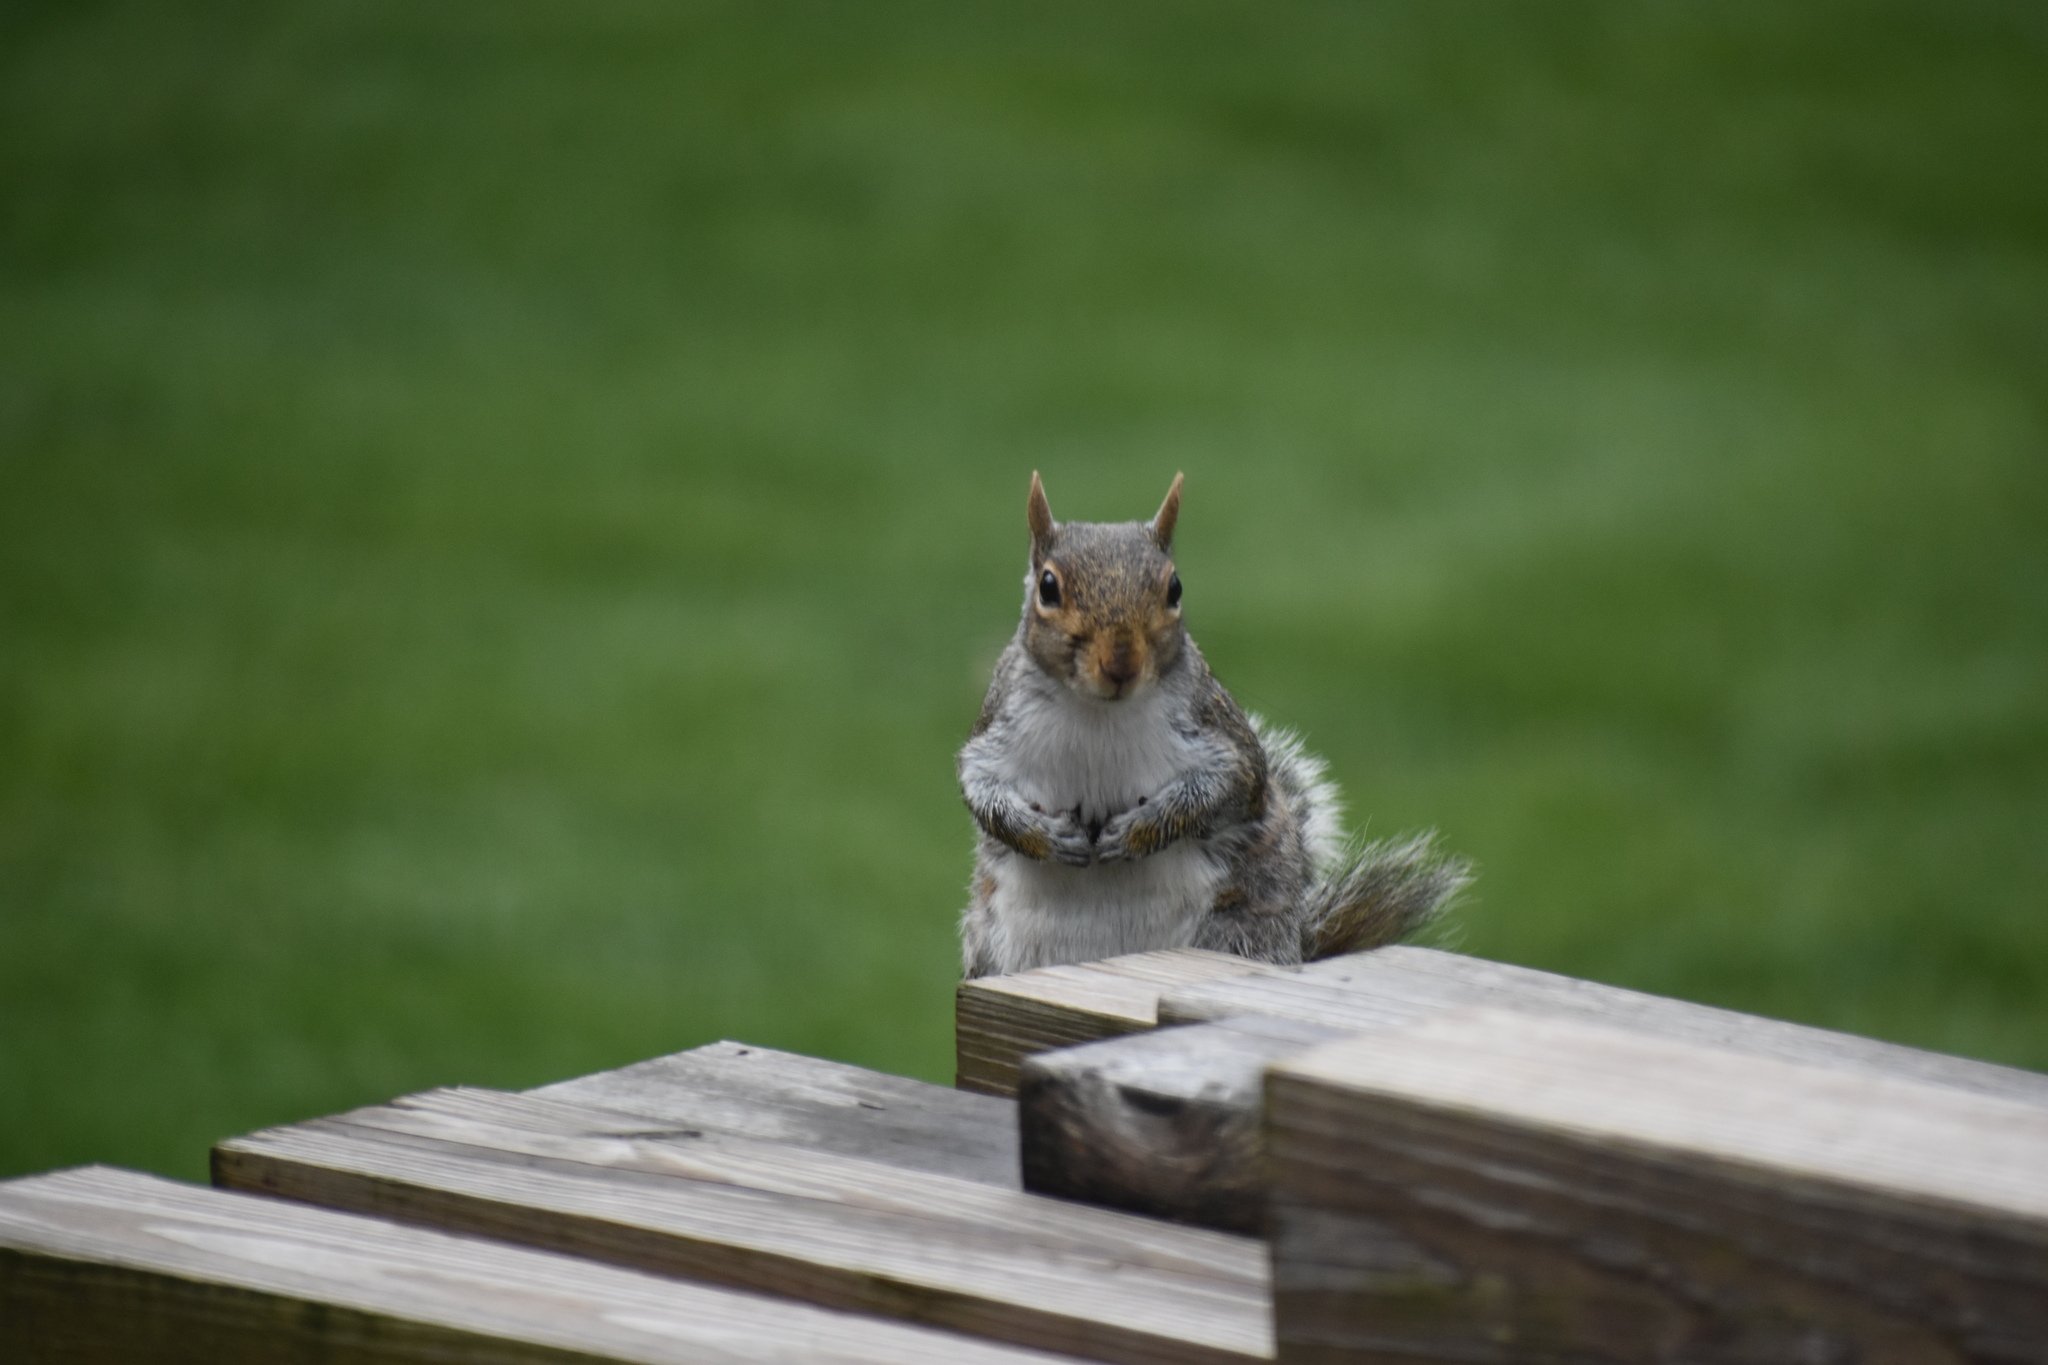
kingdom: Animalia
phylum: Chordata
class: Mammalia
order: Rodentia
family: Sciuridae
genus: Sciurus
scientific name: Sciurus carolinensis
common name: Eastern gray squirrel
